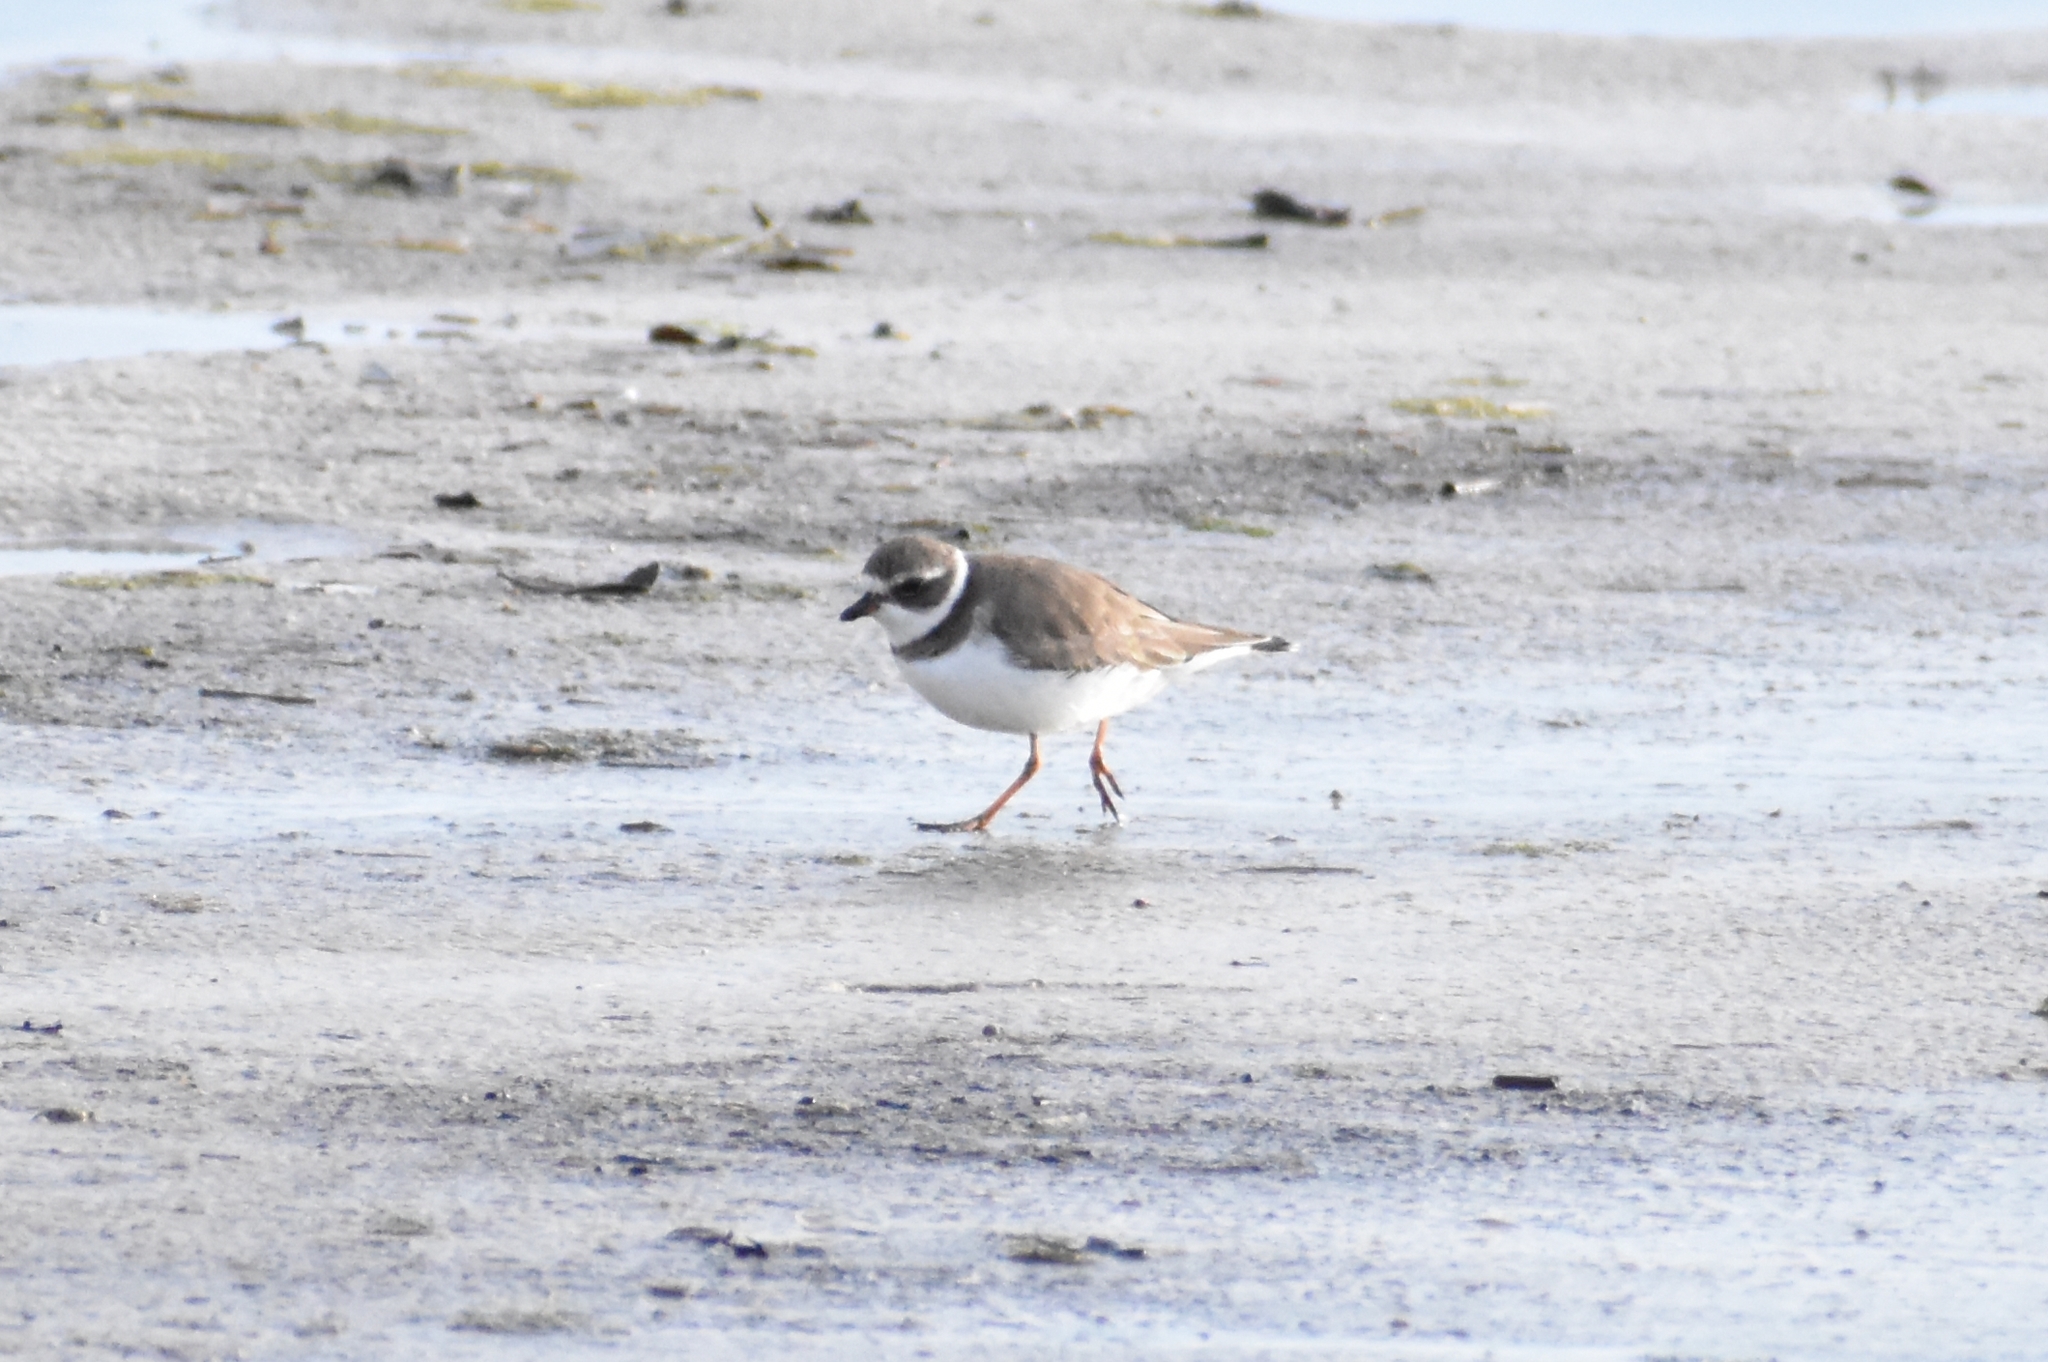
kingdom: Animalia
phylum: Chordata
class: Aves
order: Charadriiformes
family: Charadriidae
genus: Charadrius
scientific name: Charadrius semipalmatus
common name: Semipalmated plover
